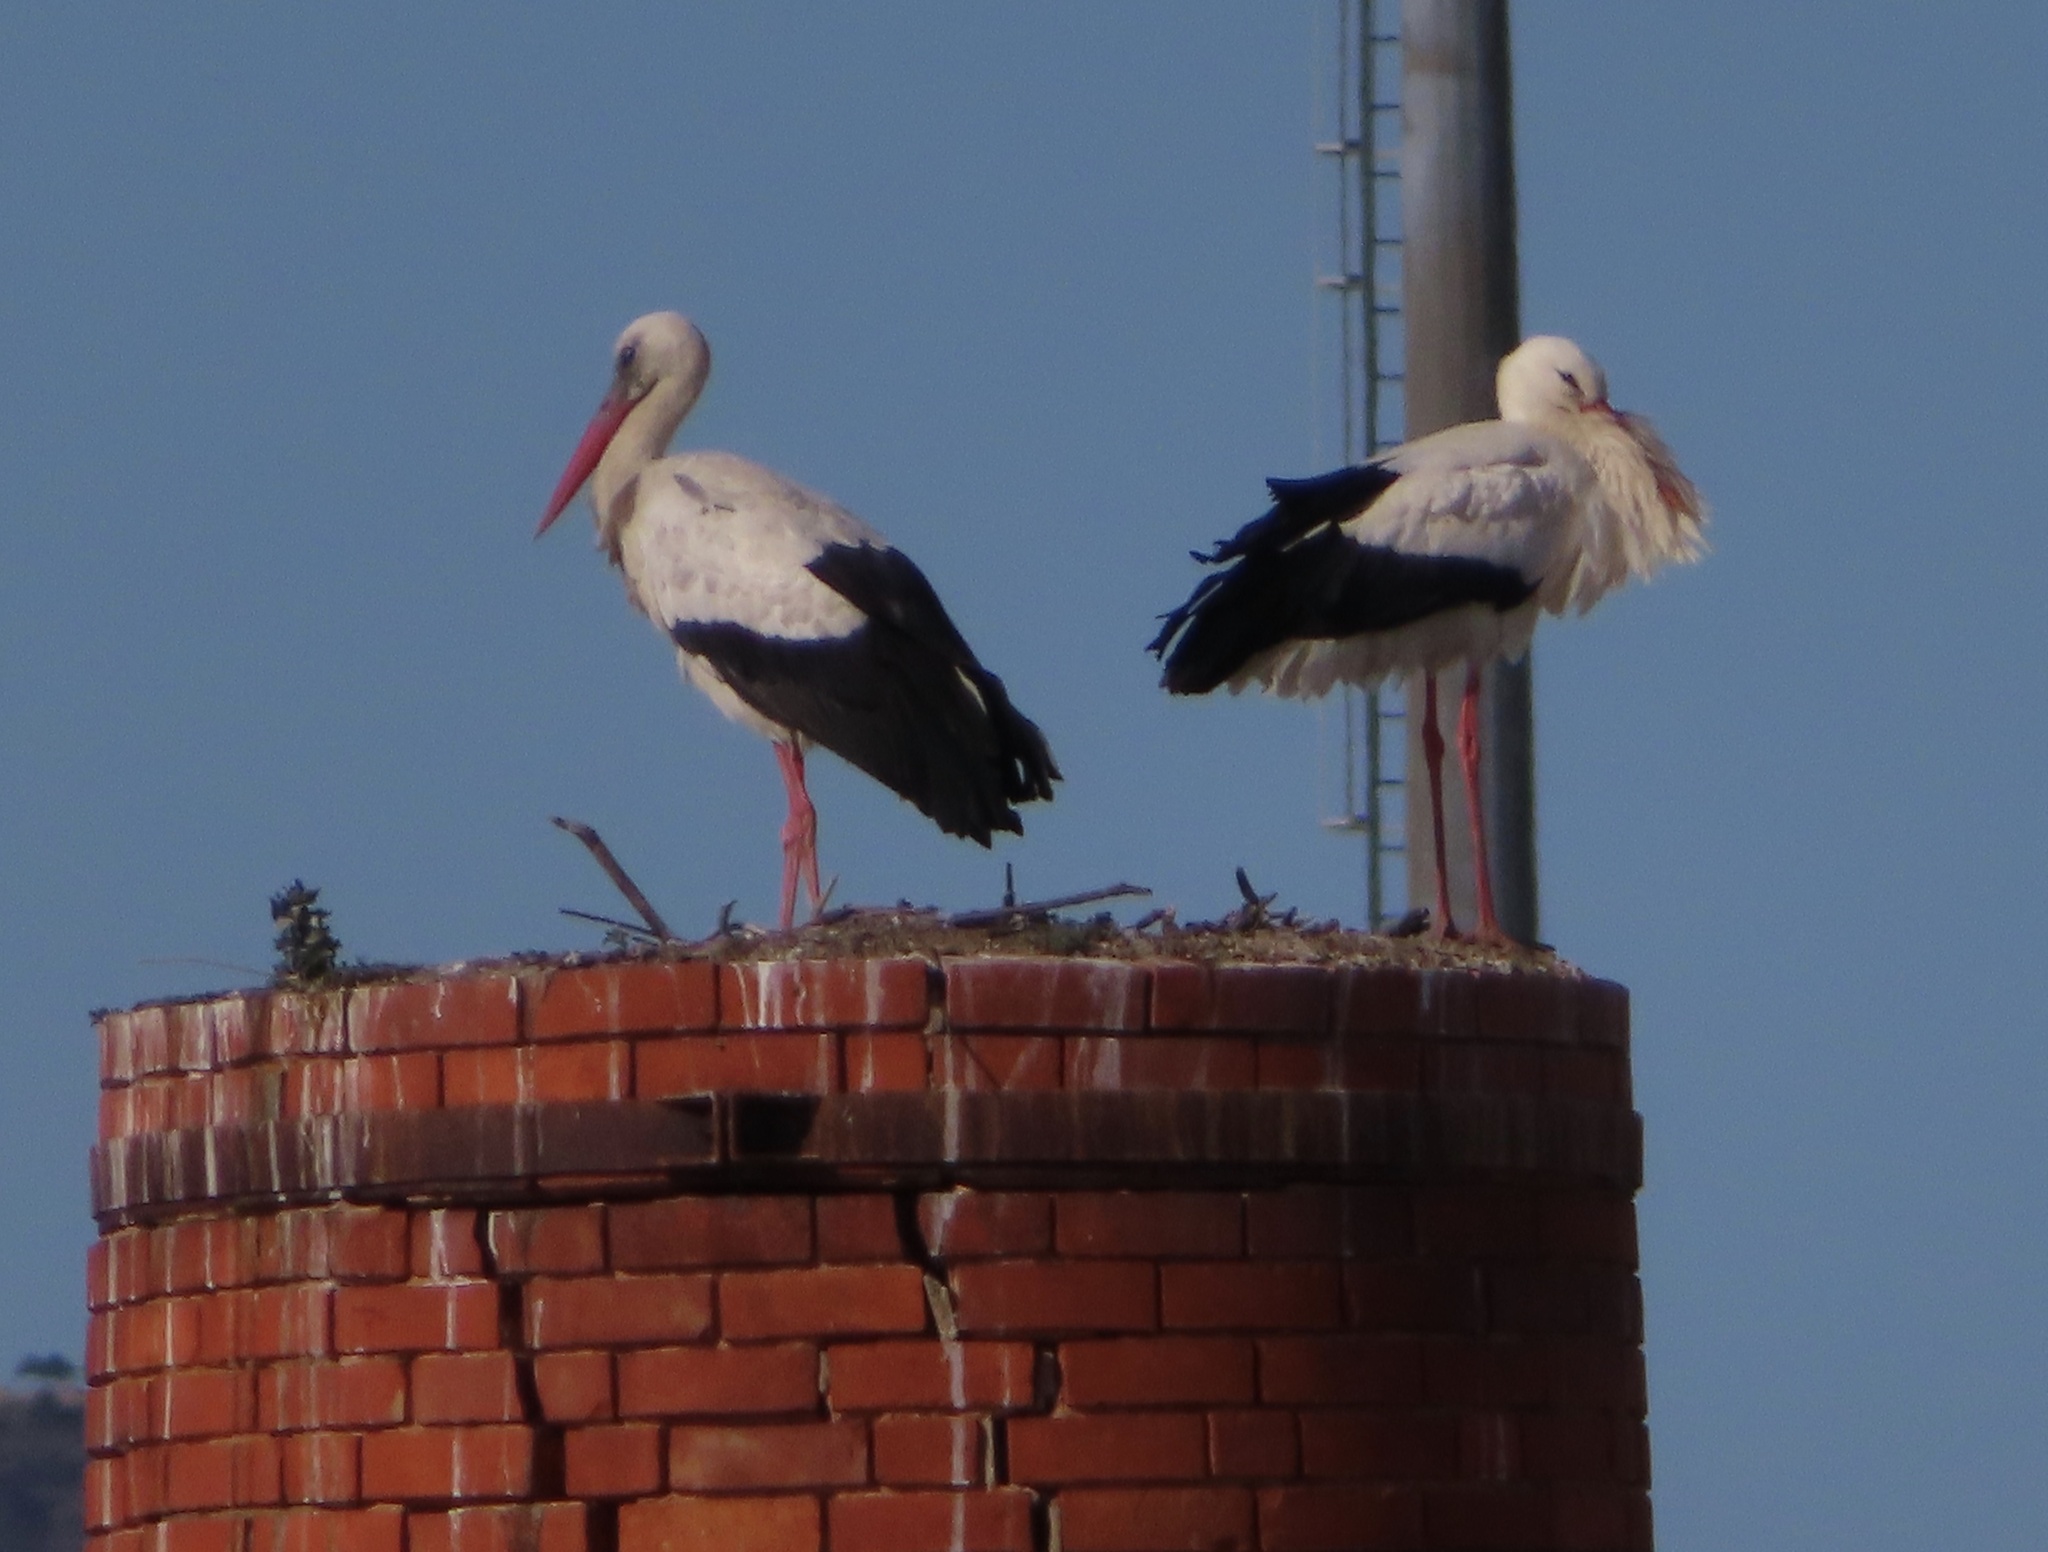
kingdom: Animalia
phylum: Chordata
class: Aves
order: Ciconiiformes
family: Ciconiidae
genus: Ciconia
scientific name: Ciconia ciconia
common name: White stork
